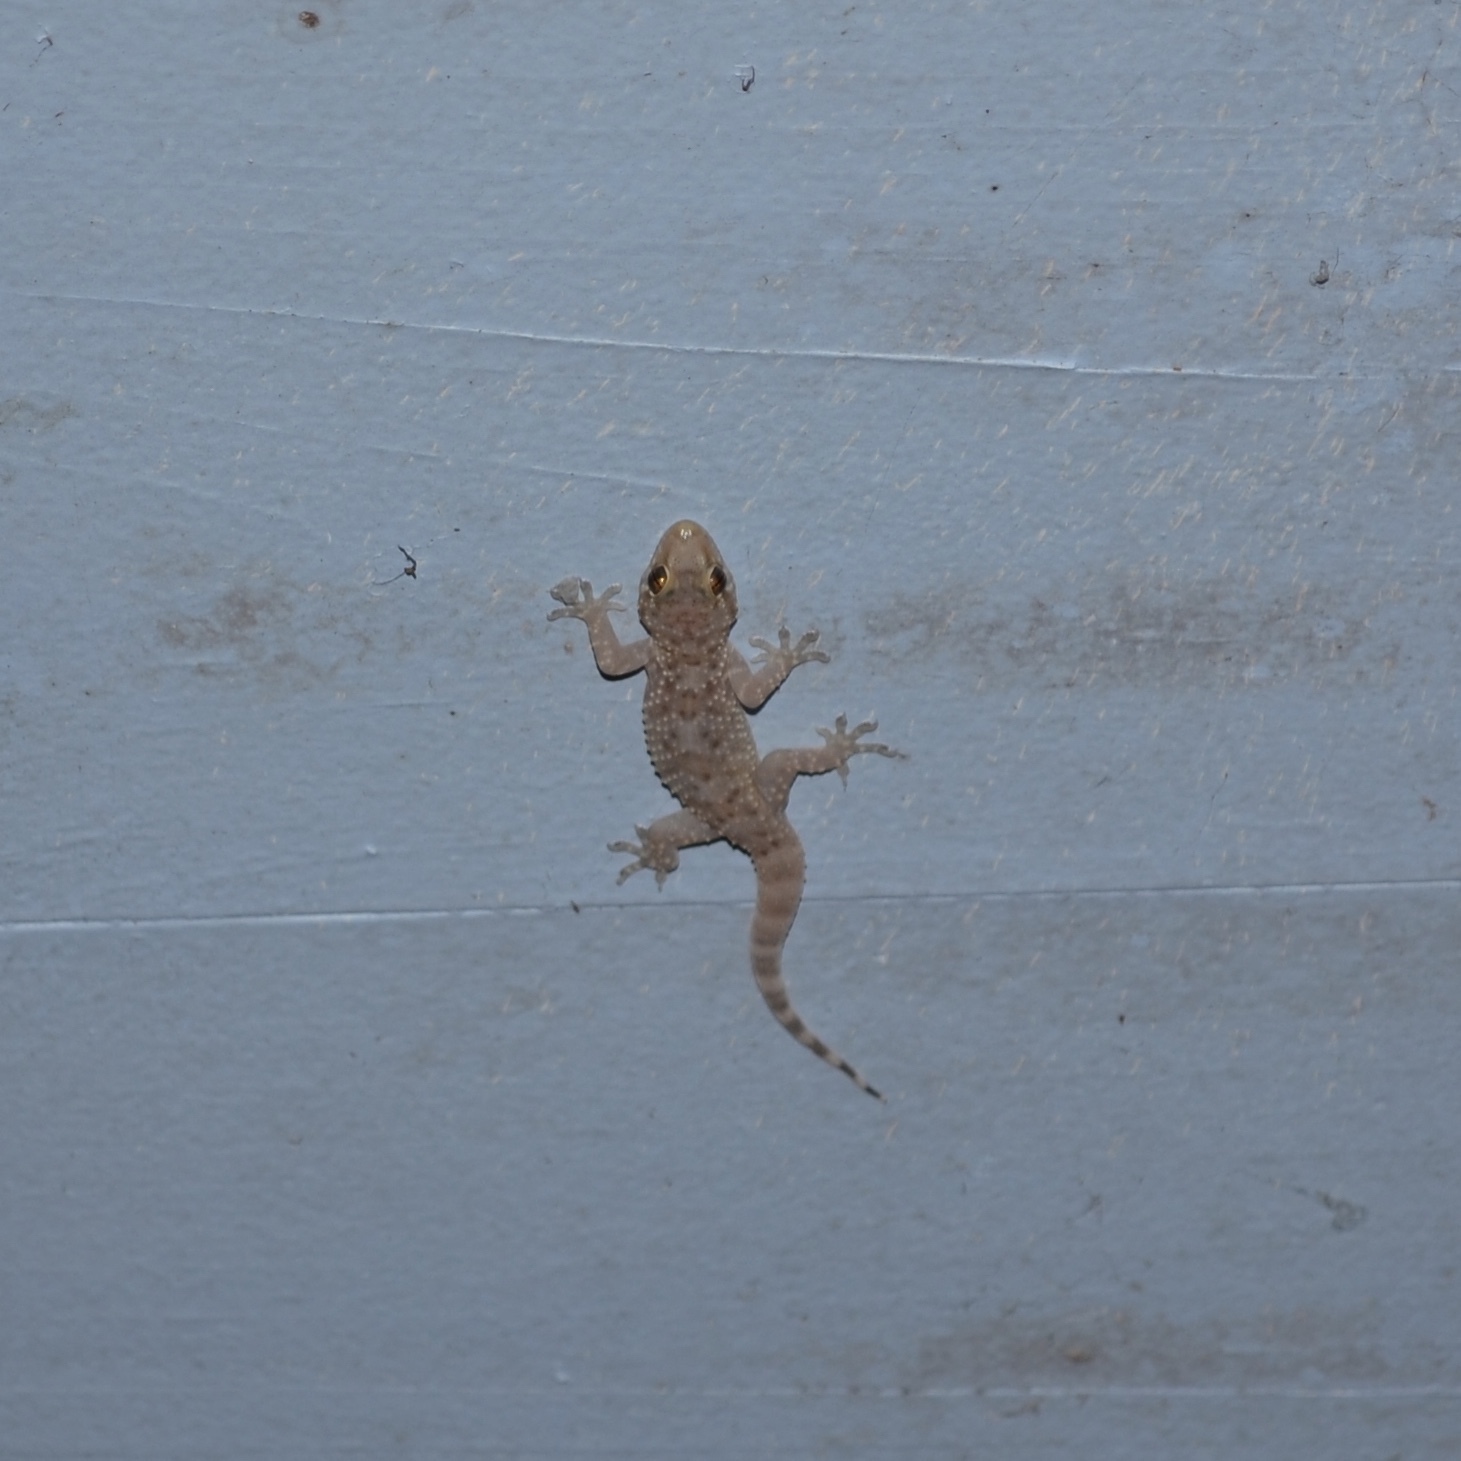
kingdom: Animalia
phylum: Chordata
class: Squamata
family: Gekkonidae
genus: Hemidactylus
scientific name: Hemidactylus turcicus
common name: Turkish gecko
